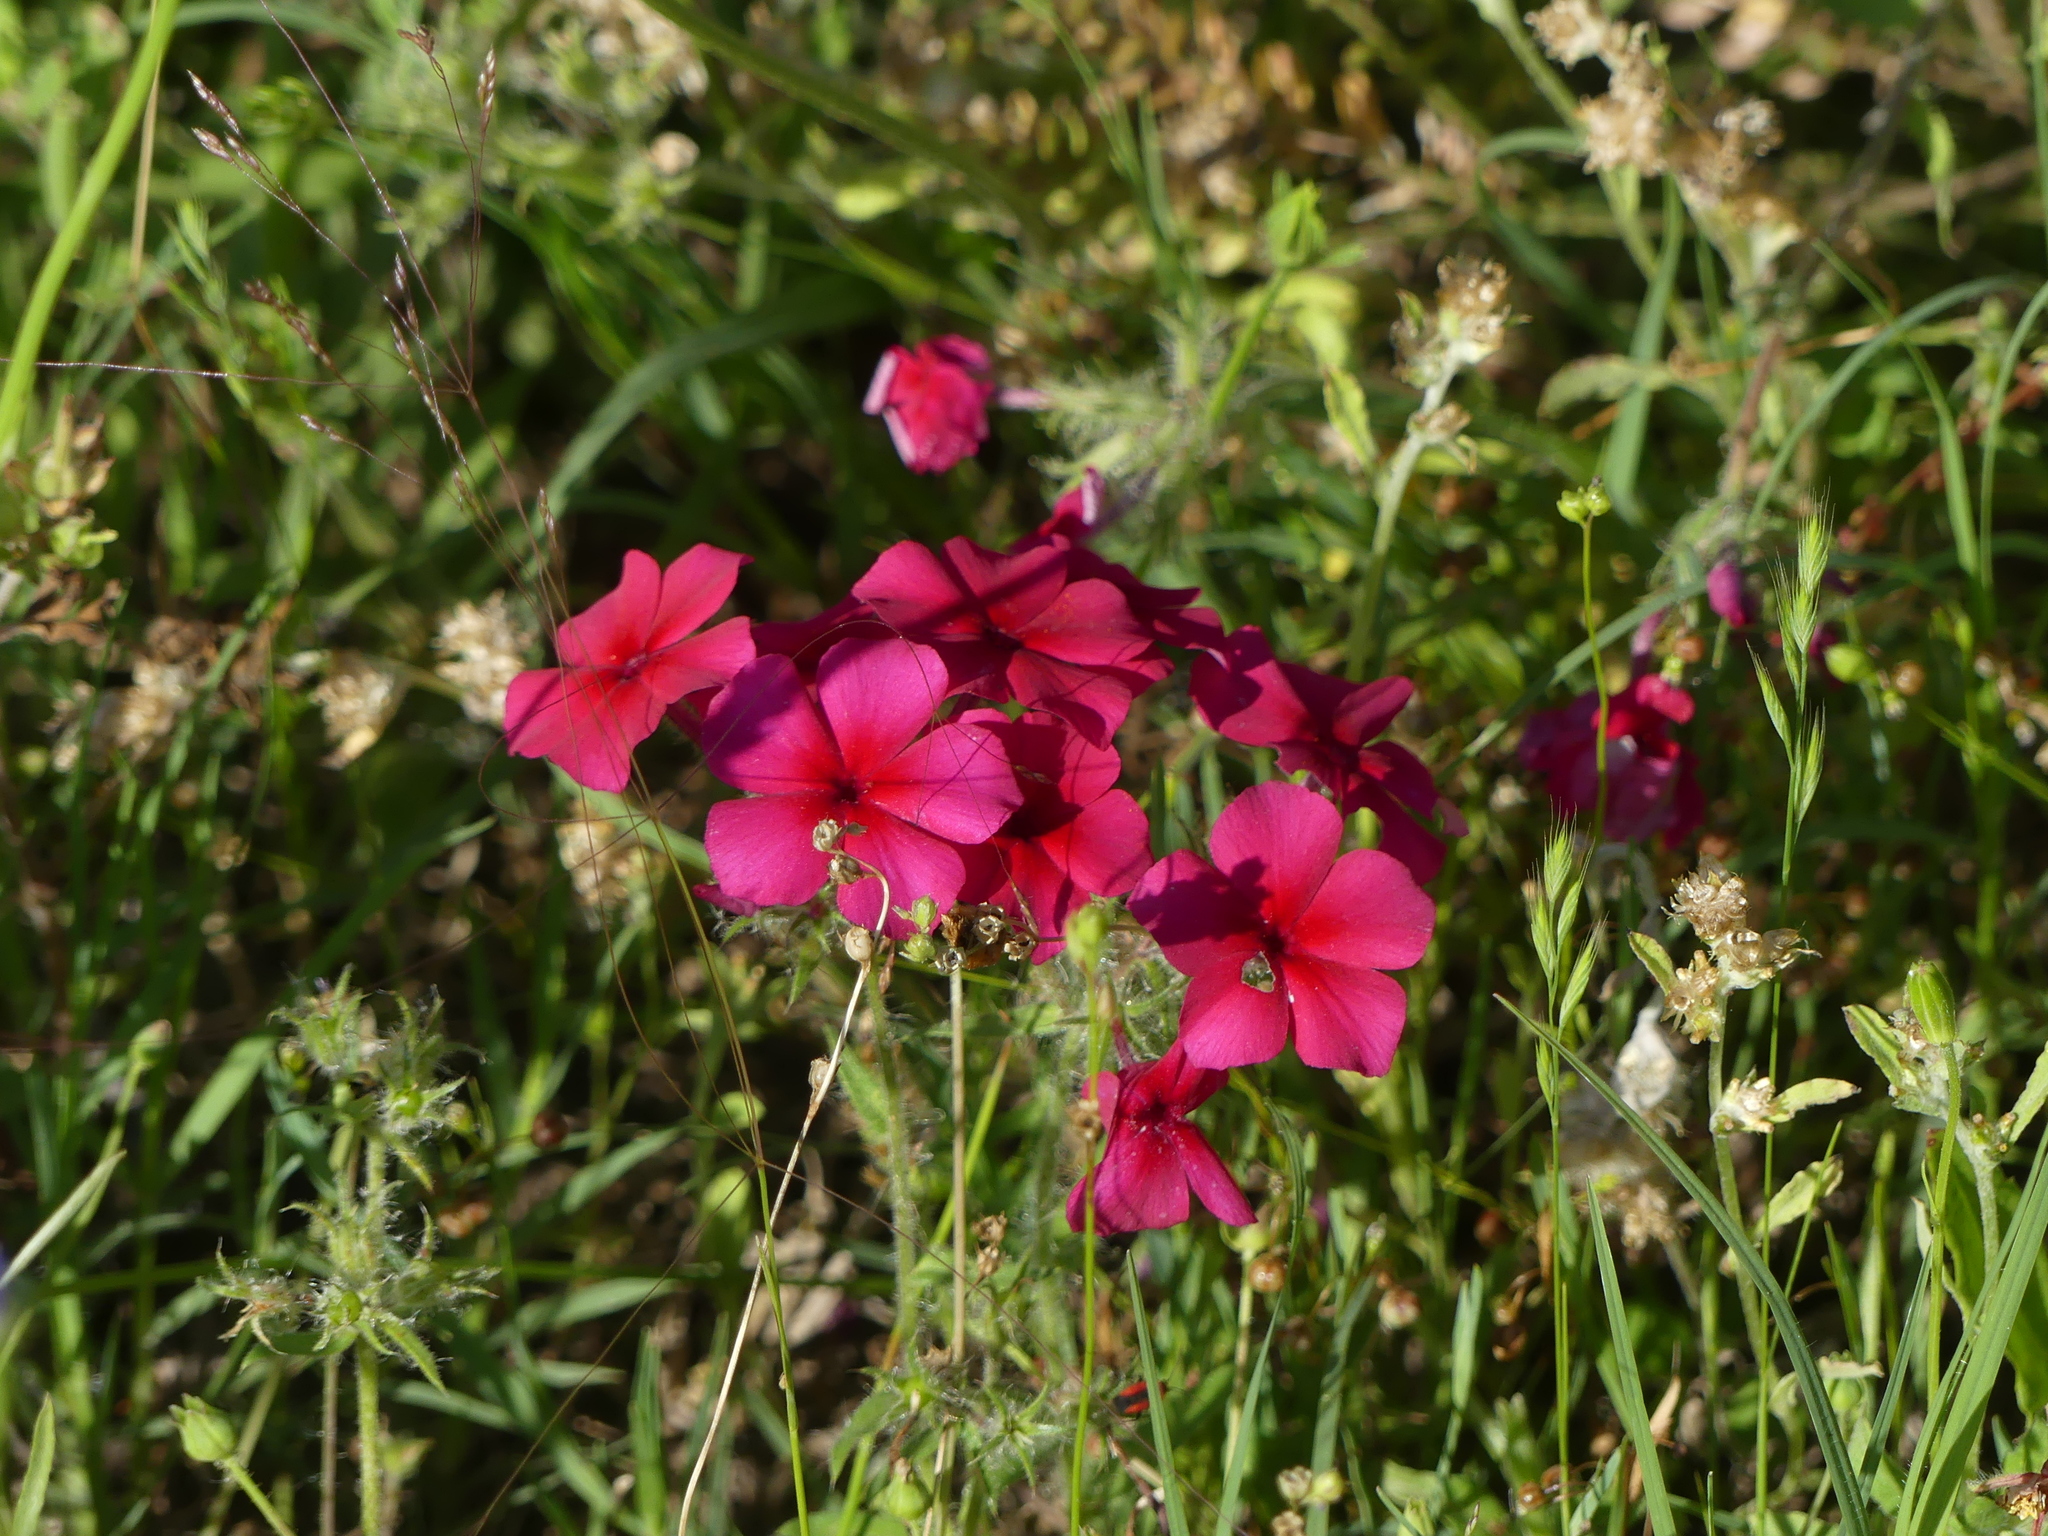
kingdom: Plantae
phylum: Tracheophyta
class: Magnoliopsida
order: Ericales
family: Polemoniaceae
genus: Phlox
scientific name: Phlox drummondii
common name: Drummond's phlox
